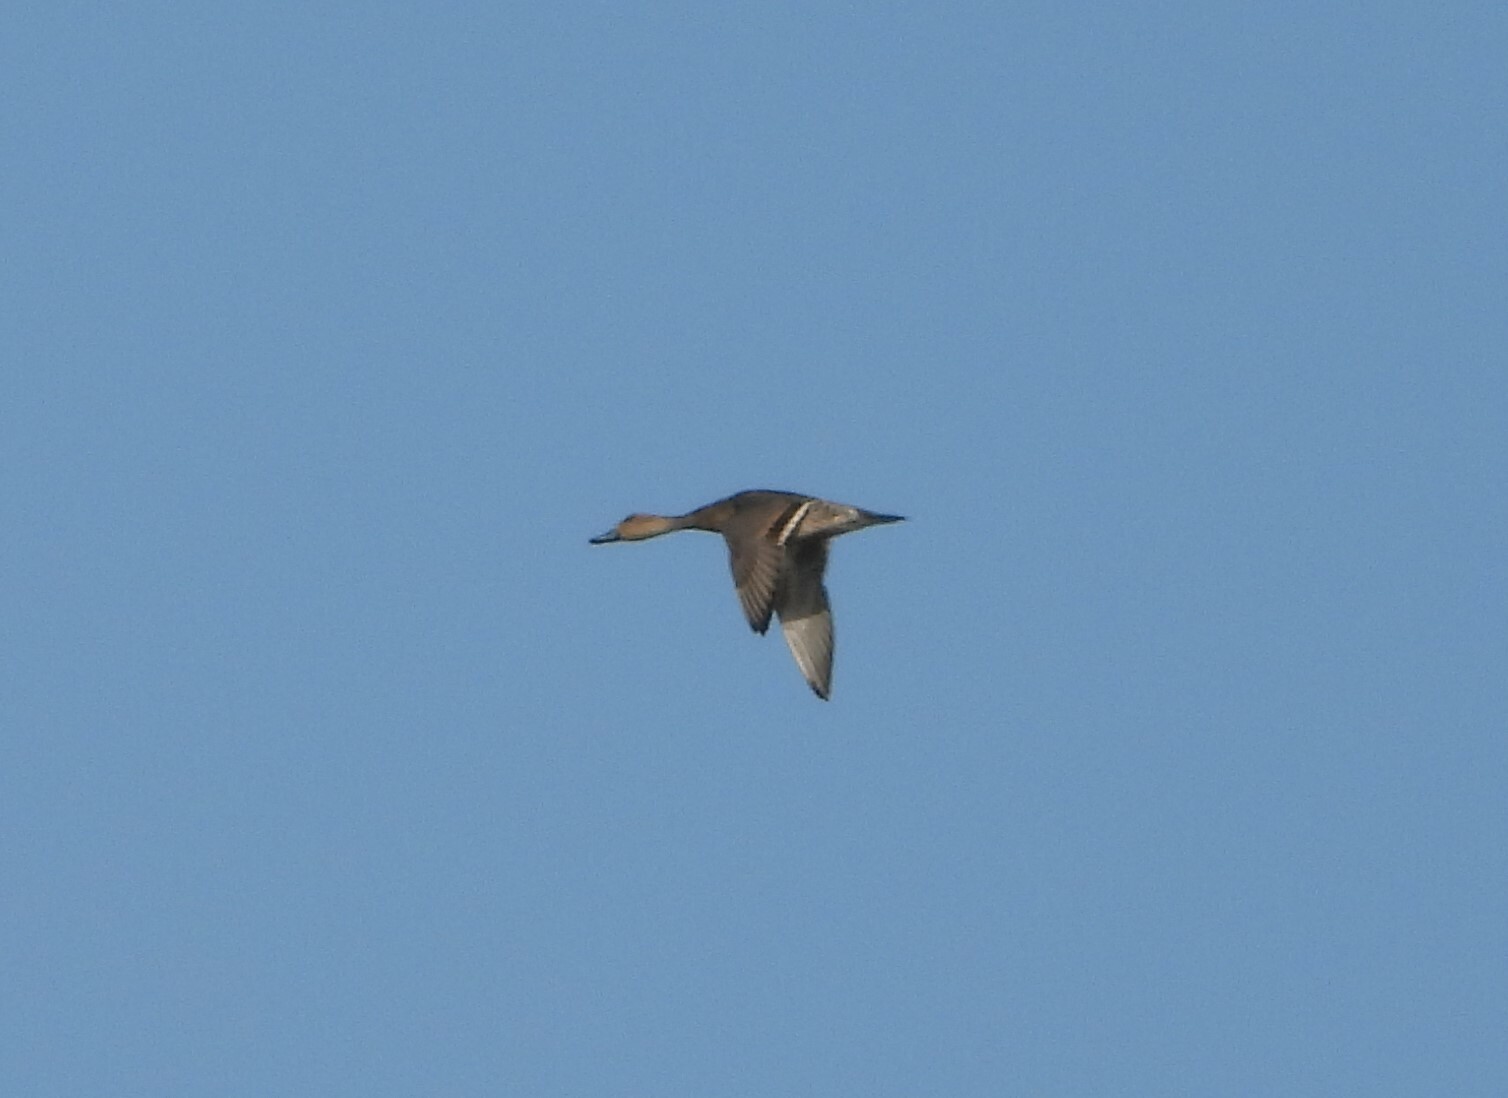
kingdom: Animalia
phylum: Chordata
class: Aves
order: Anseriformes
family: Anatidae
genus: Anas
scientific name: Anas acuta
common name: Northern pintail
